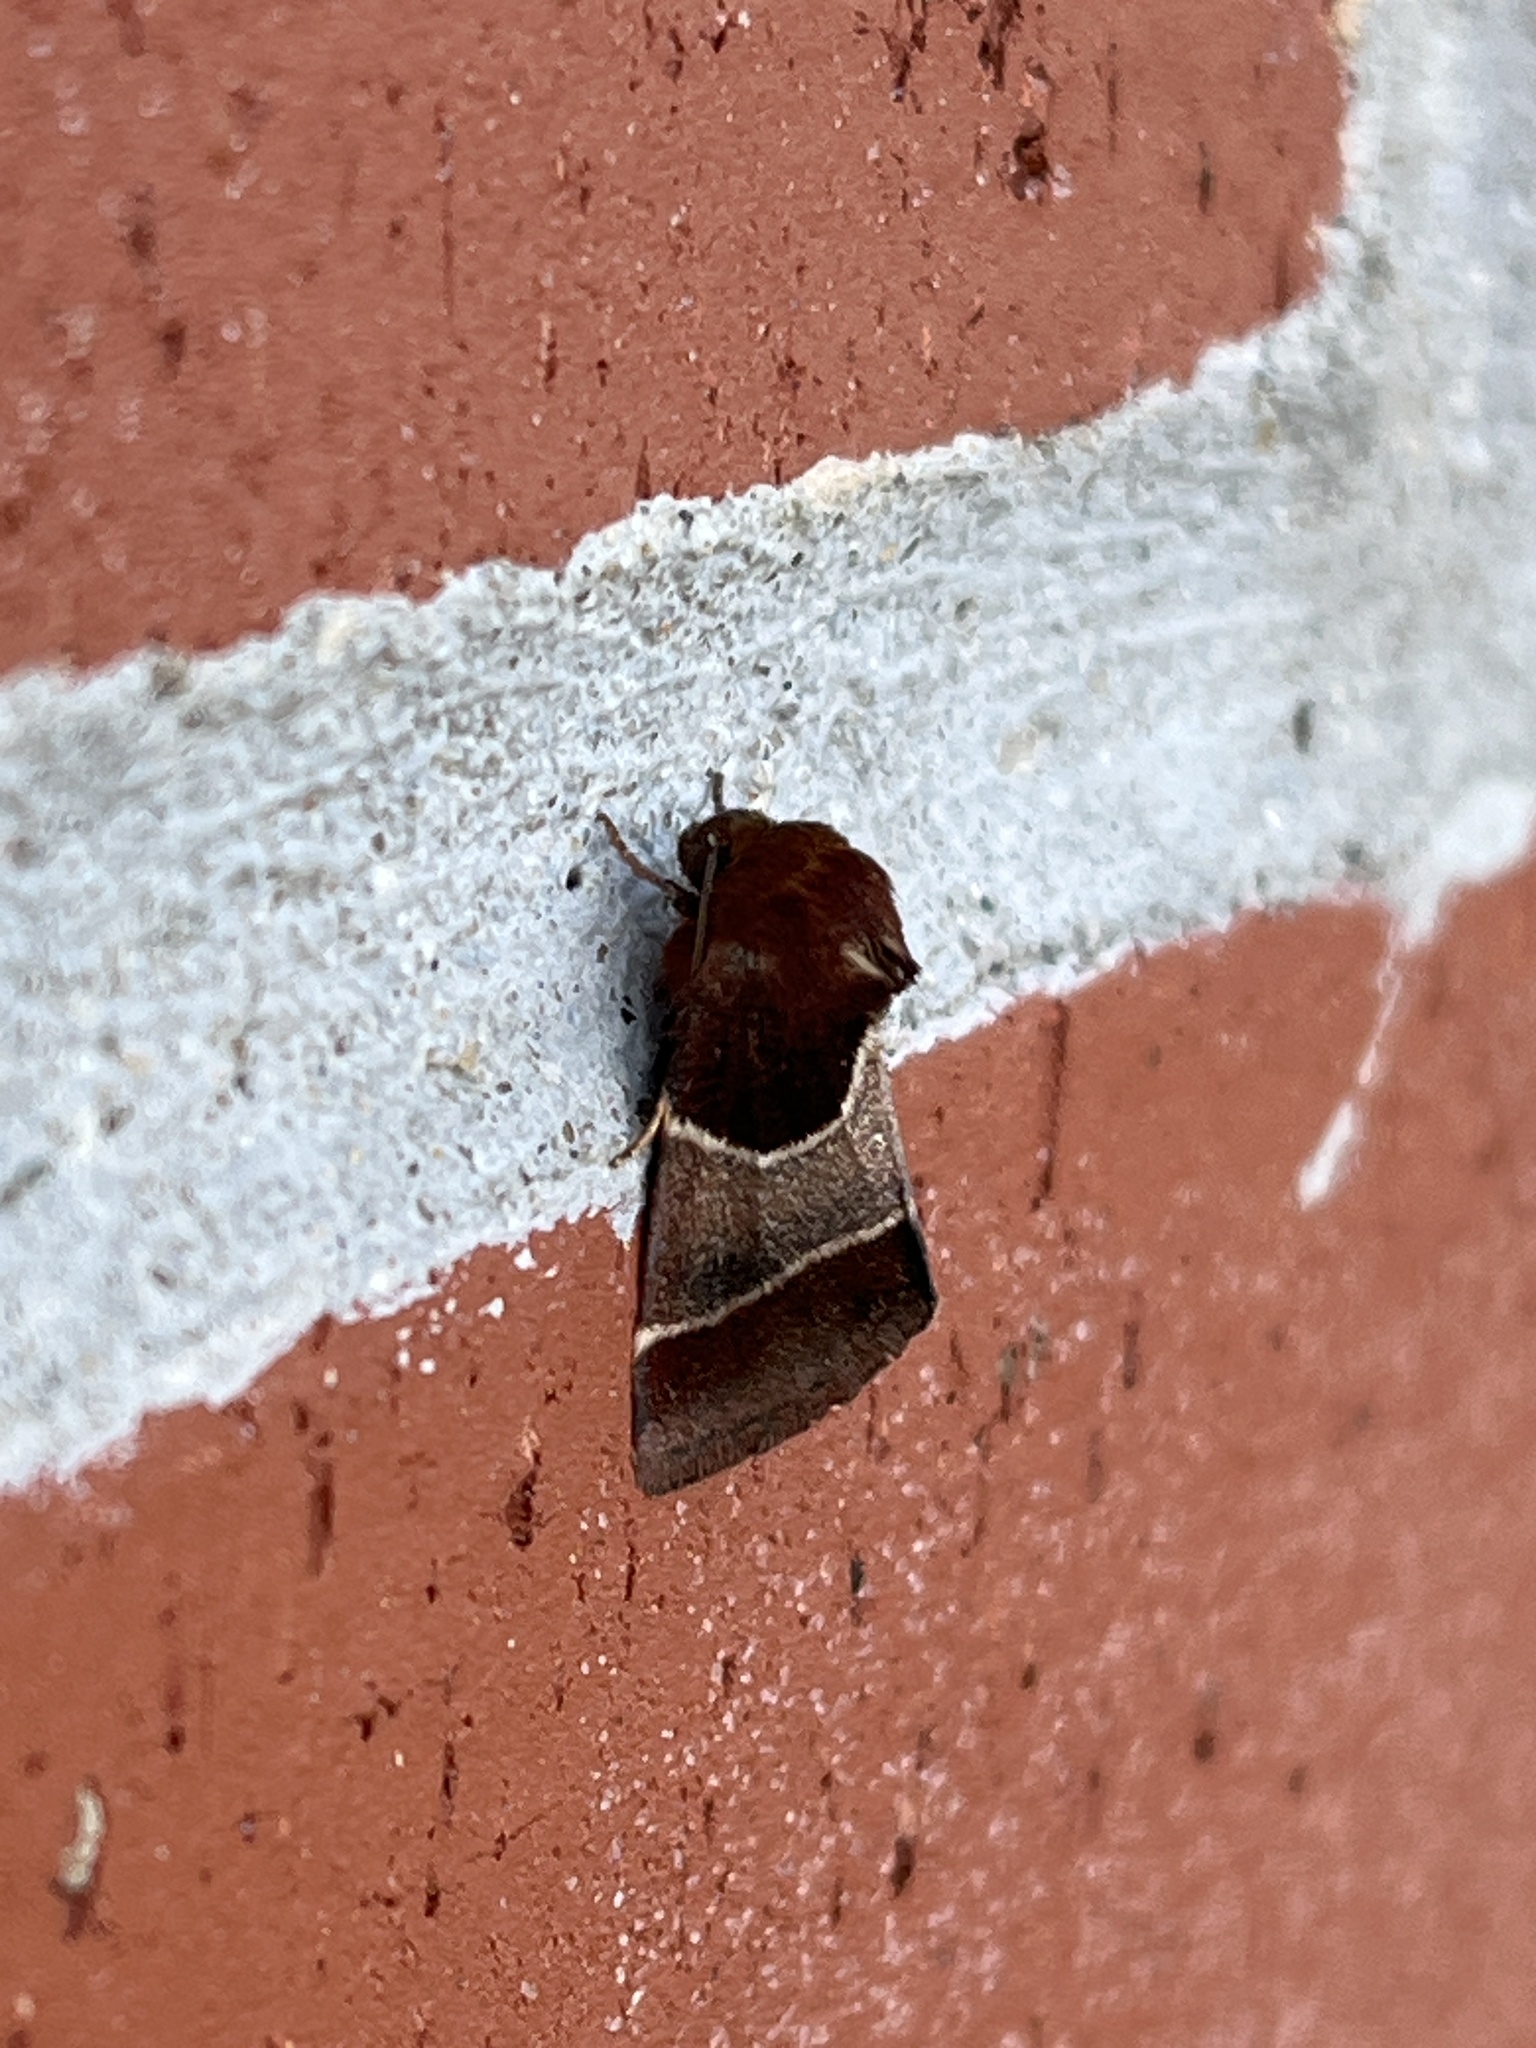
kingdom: Animalia
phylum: Arthropoda
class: Insecta
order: Lepidoptera
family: Noctuidae
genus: Schinia
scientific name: Schinia arcigera
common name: Arcigera flower moth
